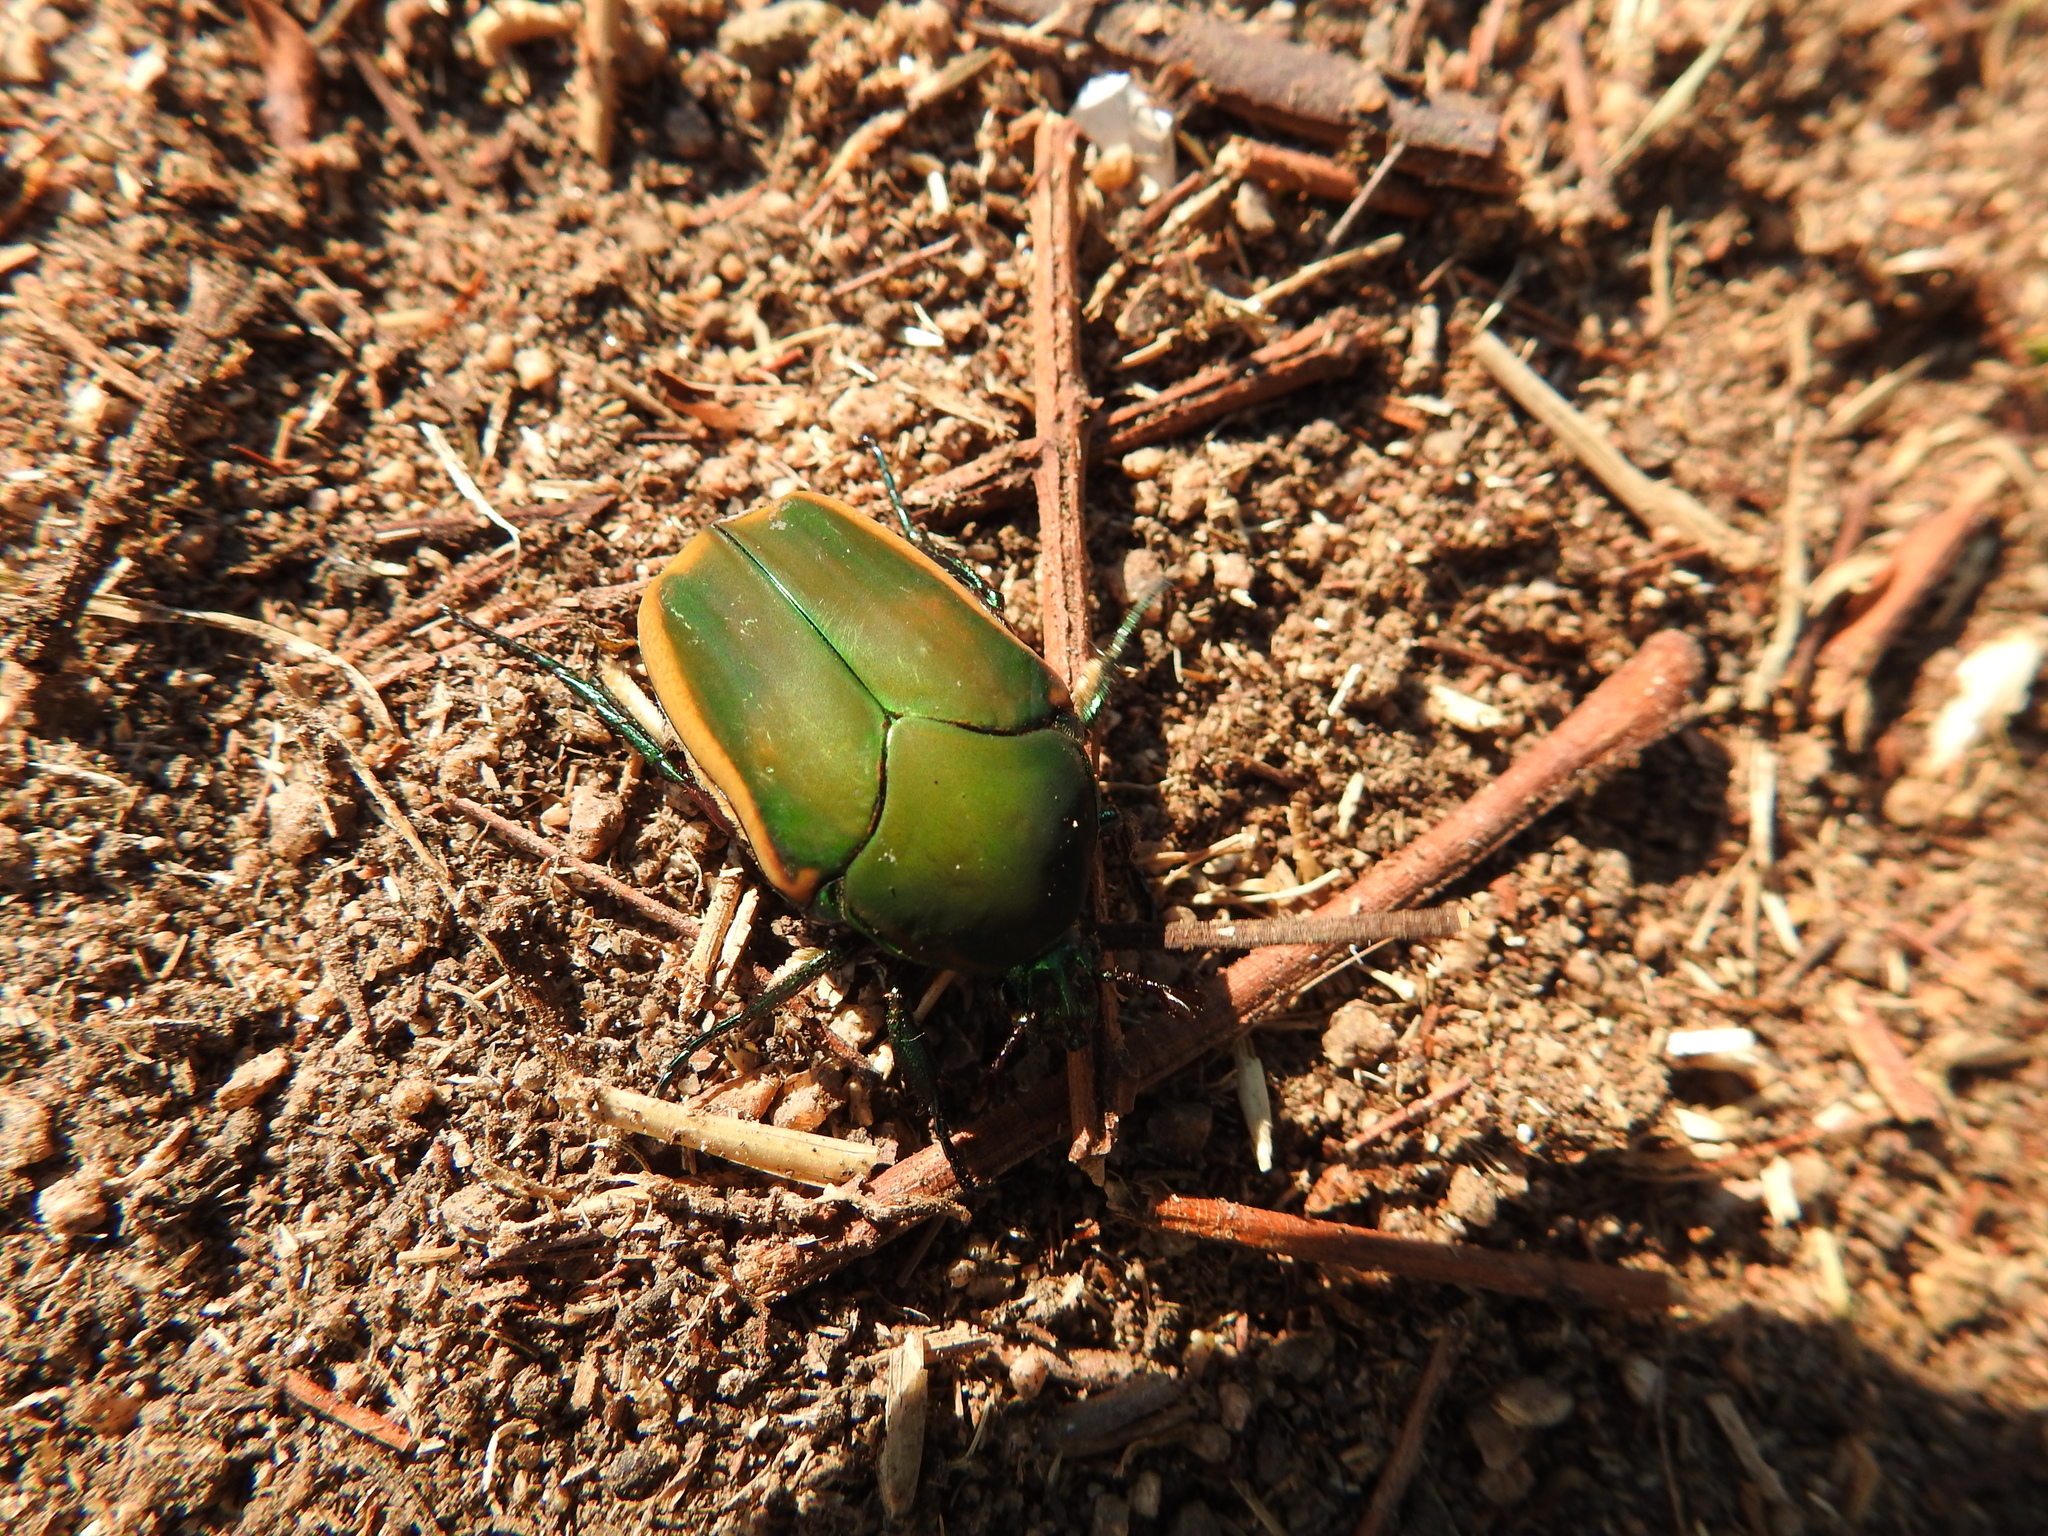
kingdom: Animalia
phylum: Arthropoda
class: Insecta
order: Coleoptera
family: Scarabaeidae
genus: Cotinis
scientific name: Cotinis mutabilis
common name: Figeater beetle
